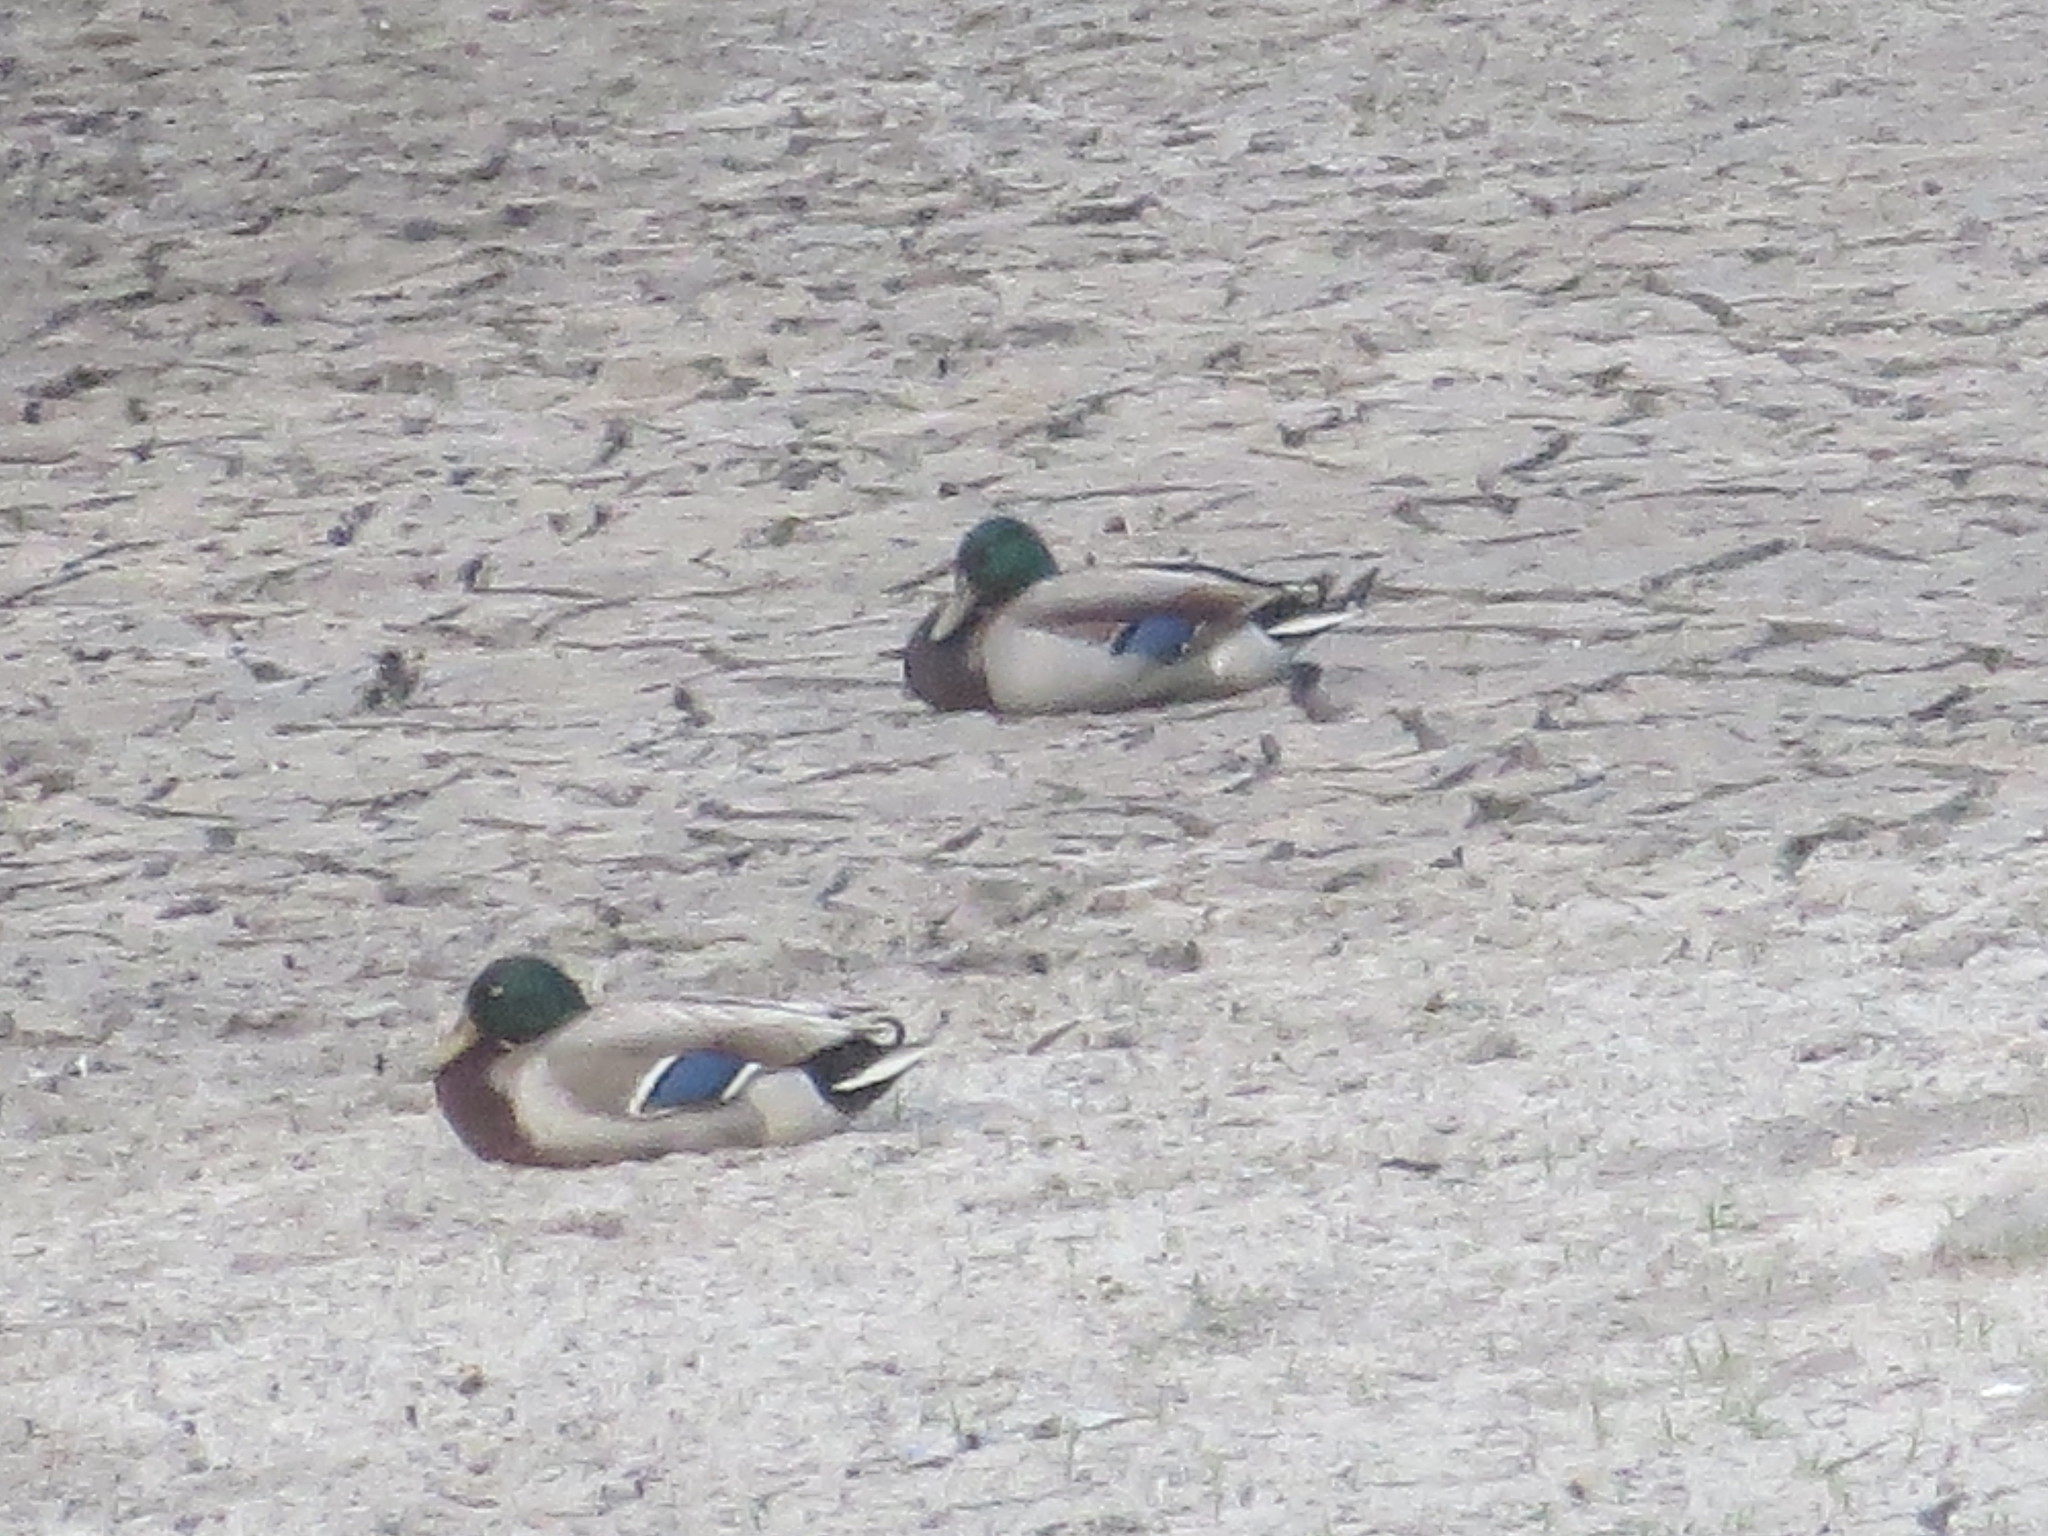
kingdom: Animalia
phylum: Chordata
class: Aves
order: Anseriformes
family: Anatidae
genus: Anas
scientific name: Anas platyrhynchos
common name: Mallard
